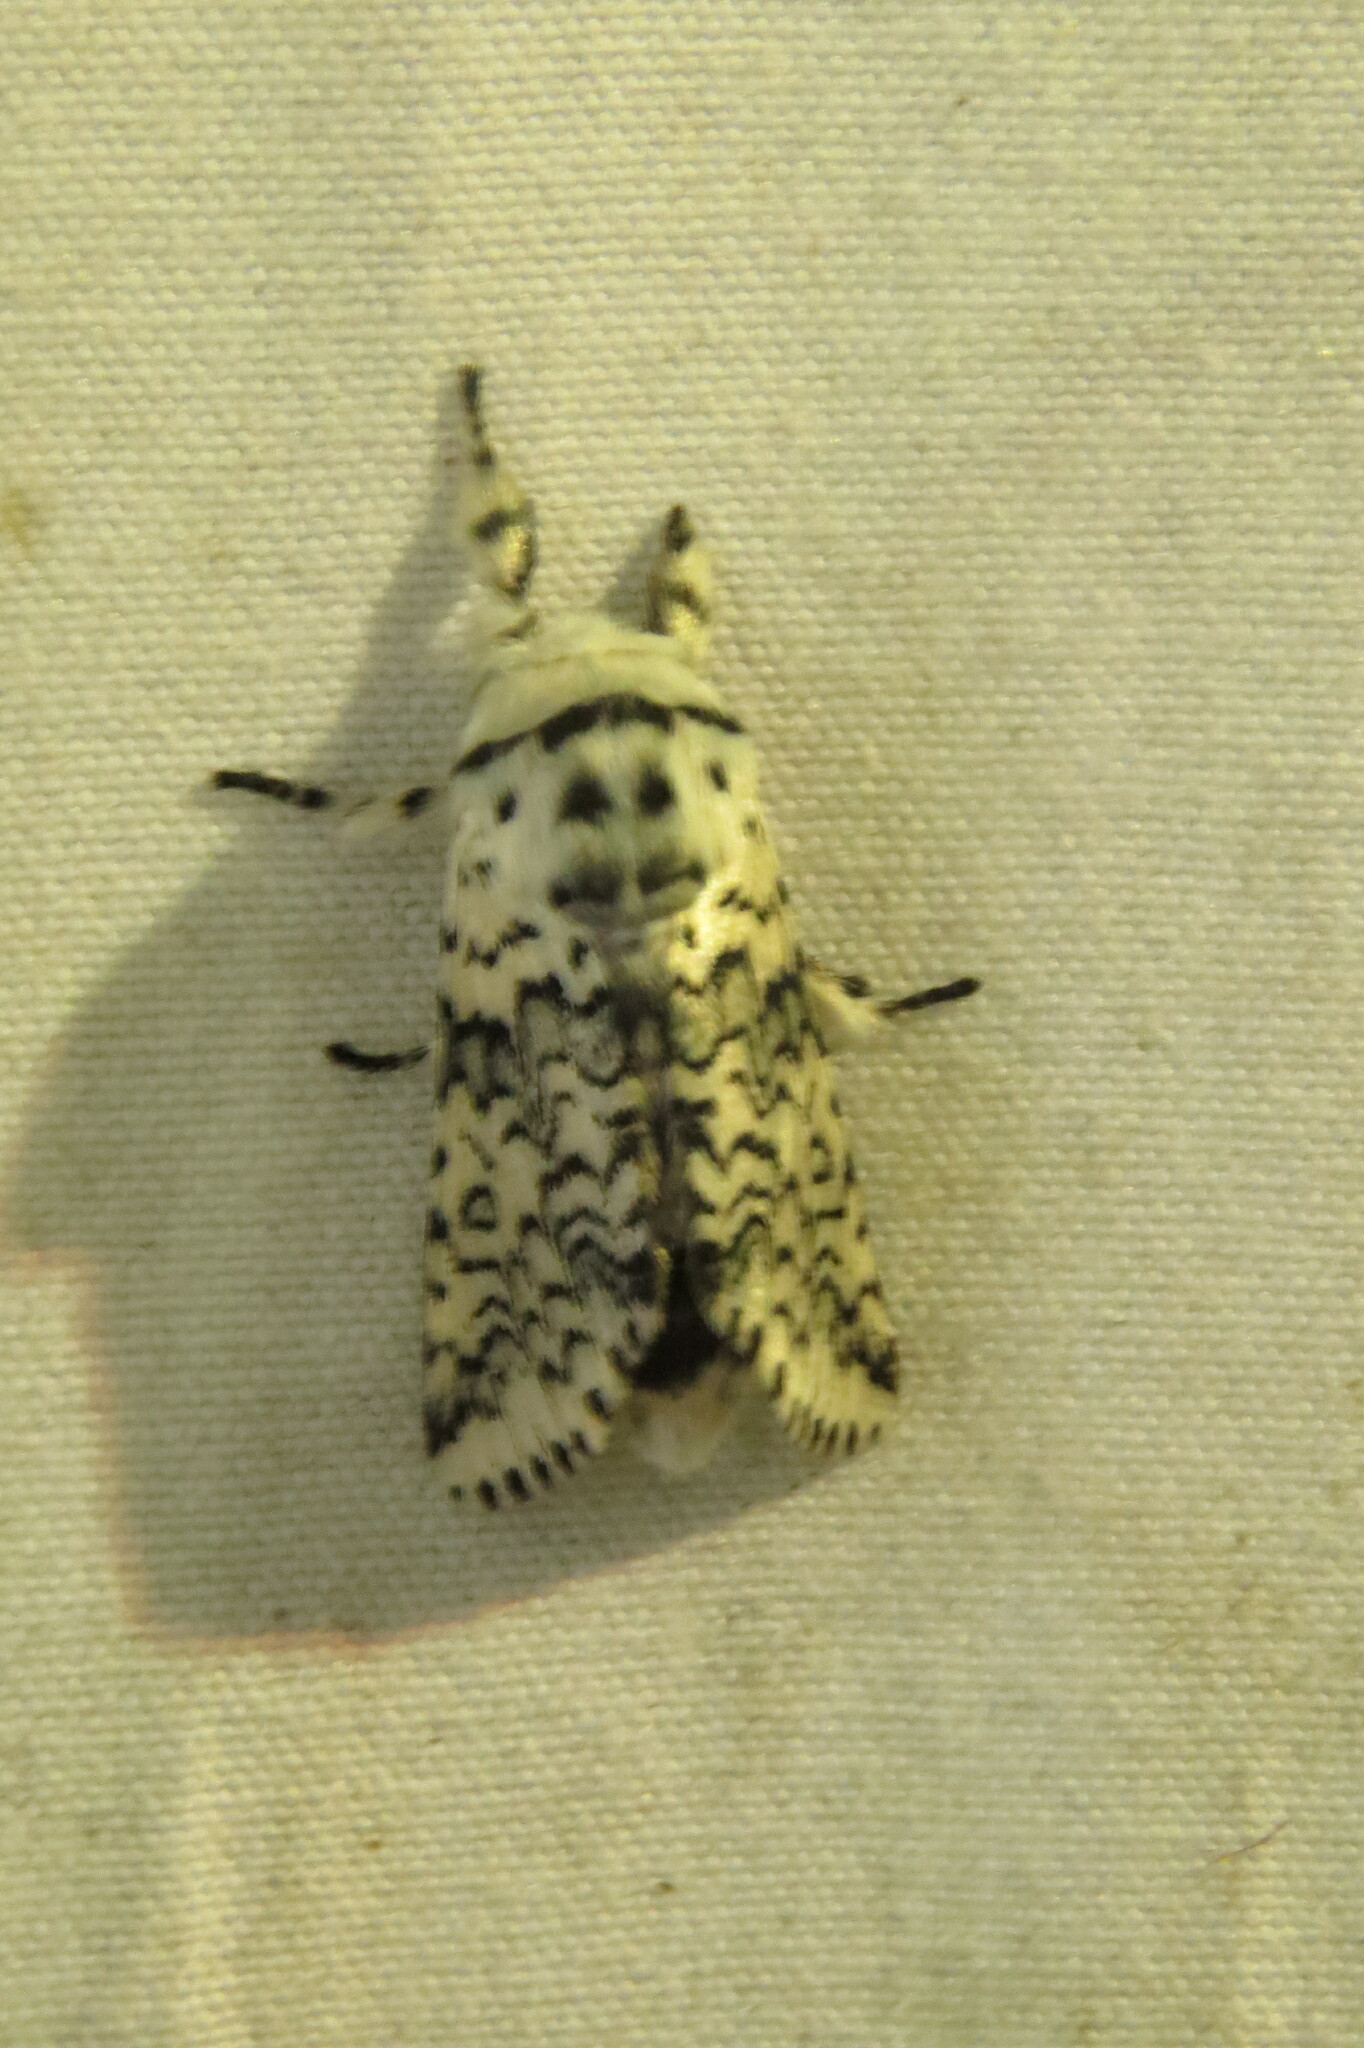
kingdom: Animalia
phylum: Arthropoda
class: Insecta
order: Lepidoptera
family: Notodontidae
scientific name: Notodontidae
